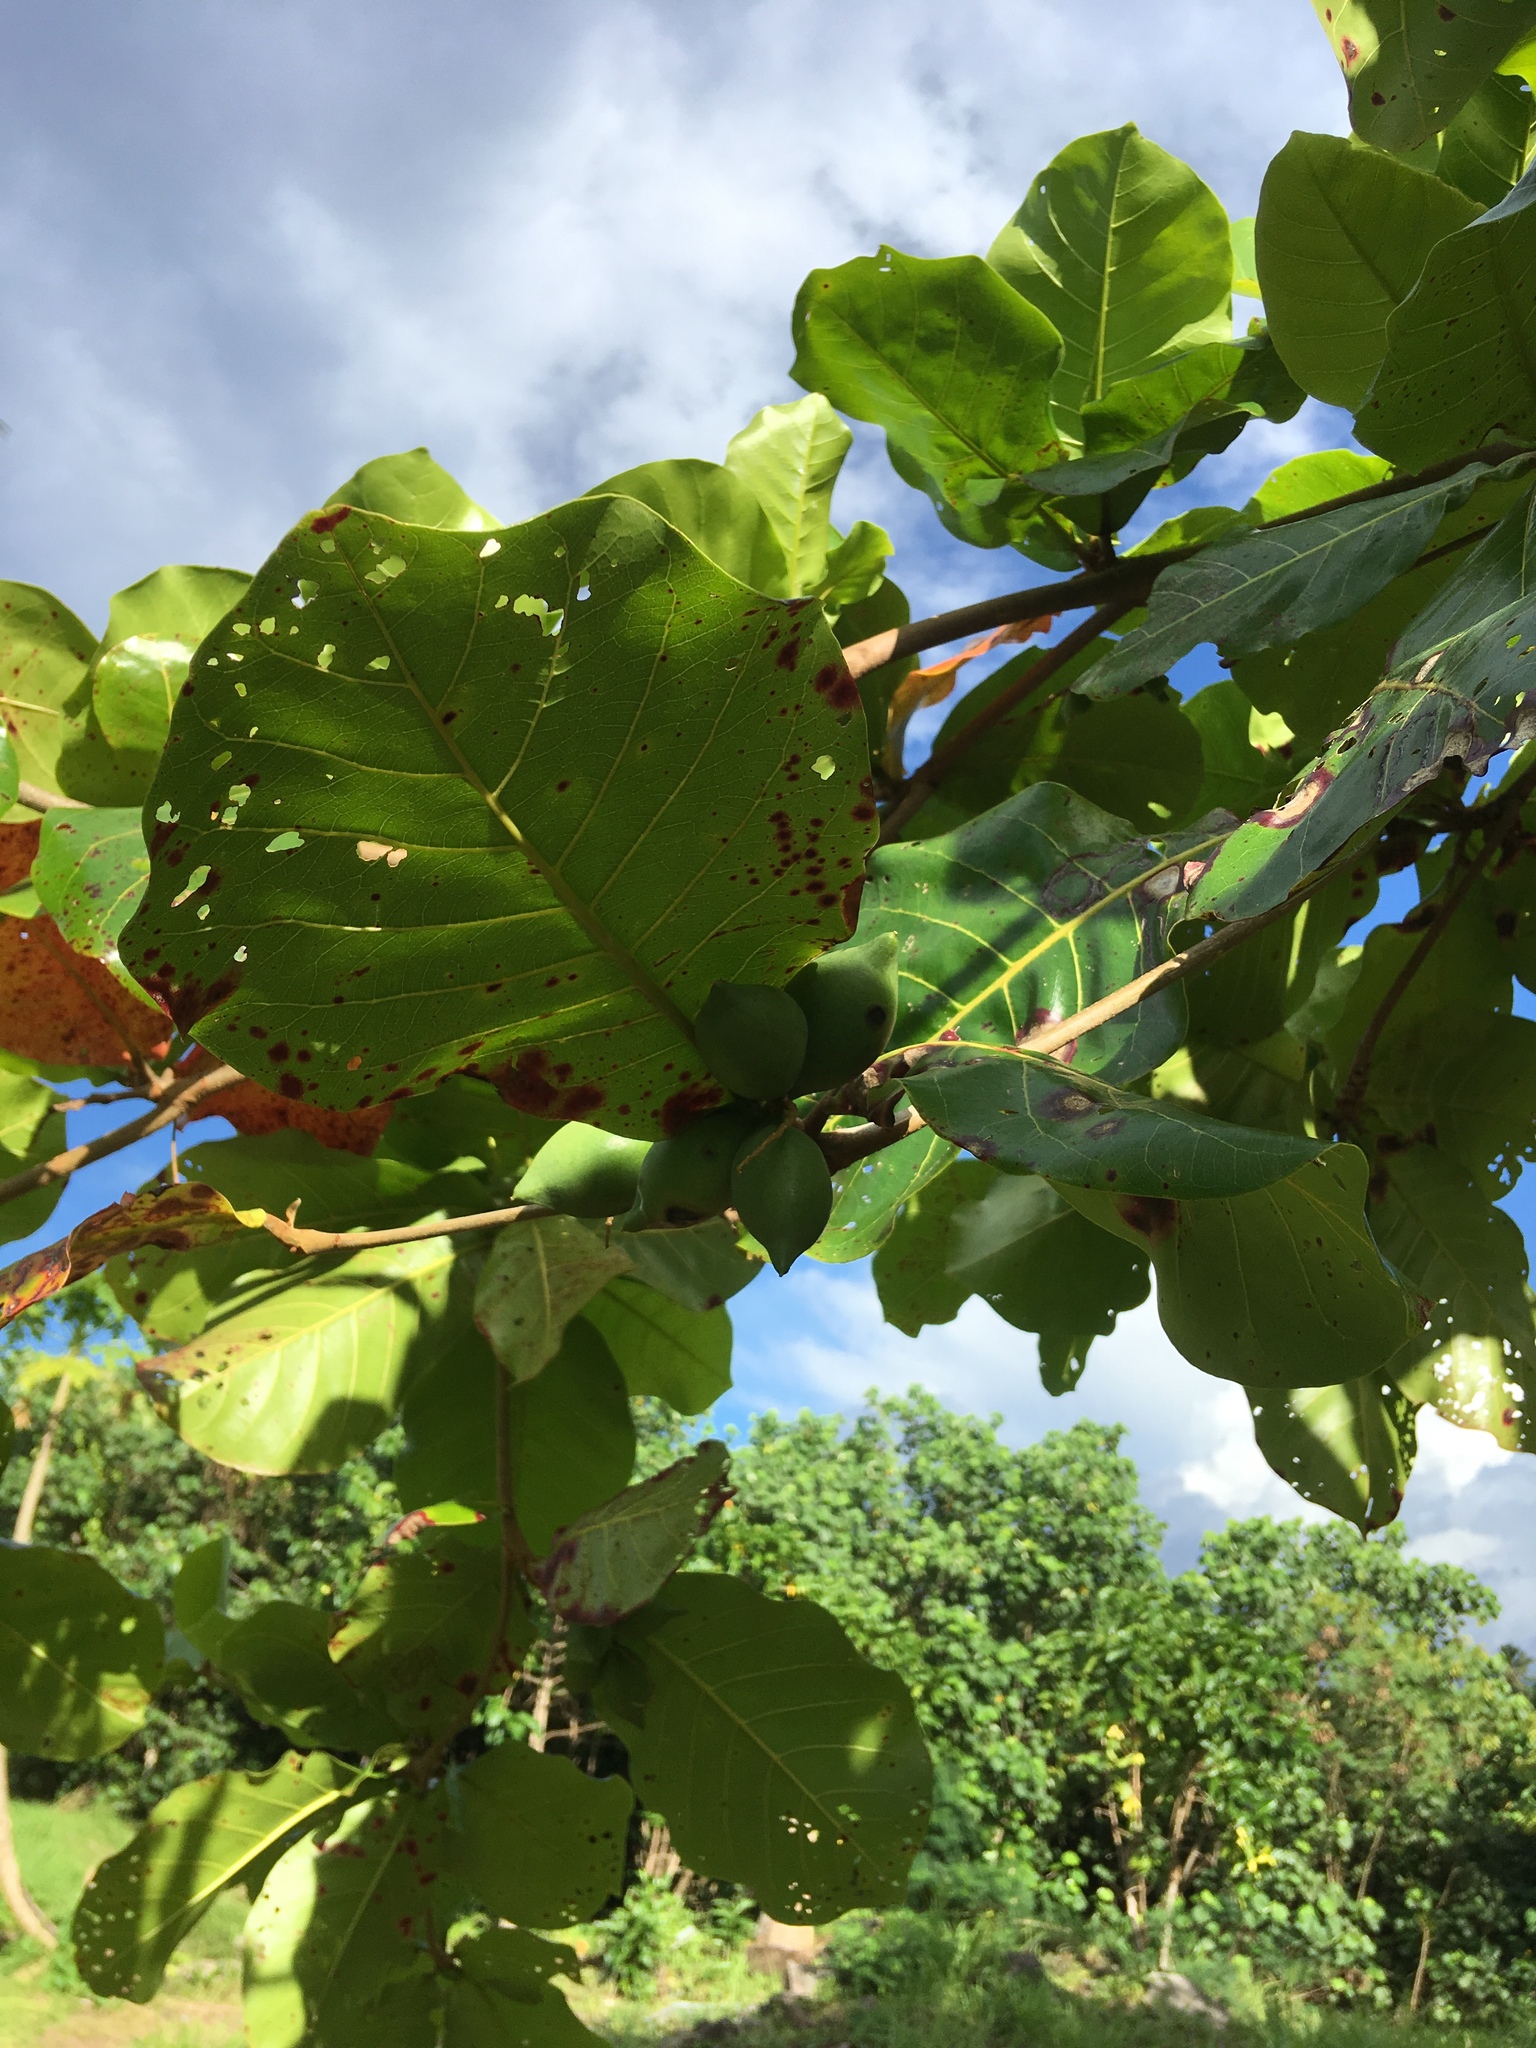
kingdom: Plantae
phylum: Tracheophyta
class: Magnoliopsida
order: Myrtales
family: Combretaceae
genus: Terminalia
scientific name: Terminalia catappa
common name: Tropical almond
